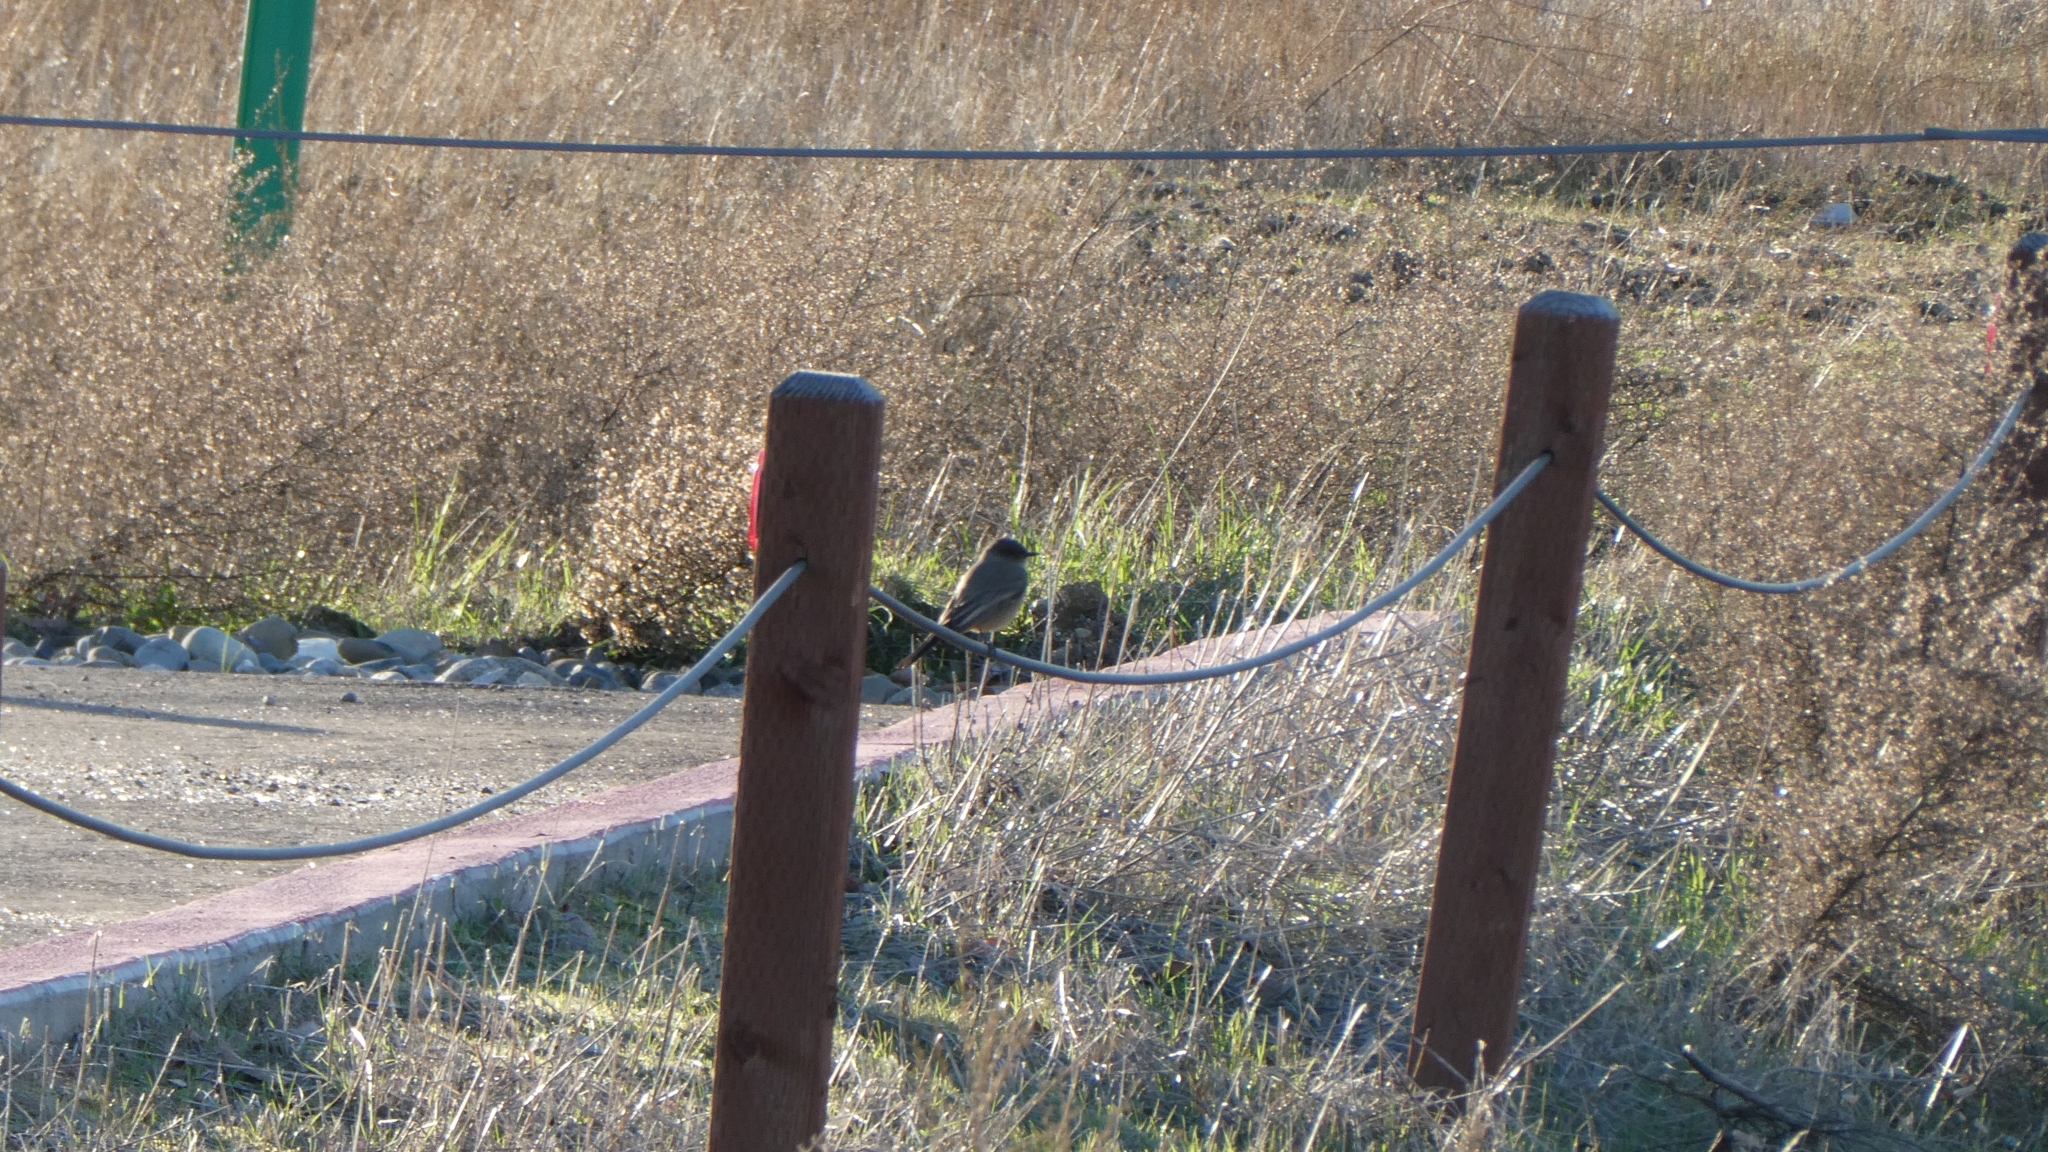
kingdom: Animalia
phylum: Chordata
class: Aves
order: Passeriformes
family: Tyrannidae
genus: Sayornis
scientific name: Sayornis saya
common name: Say's phoebe
